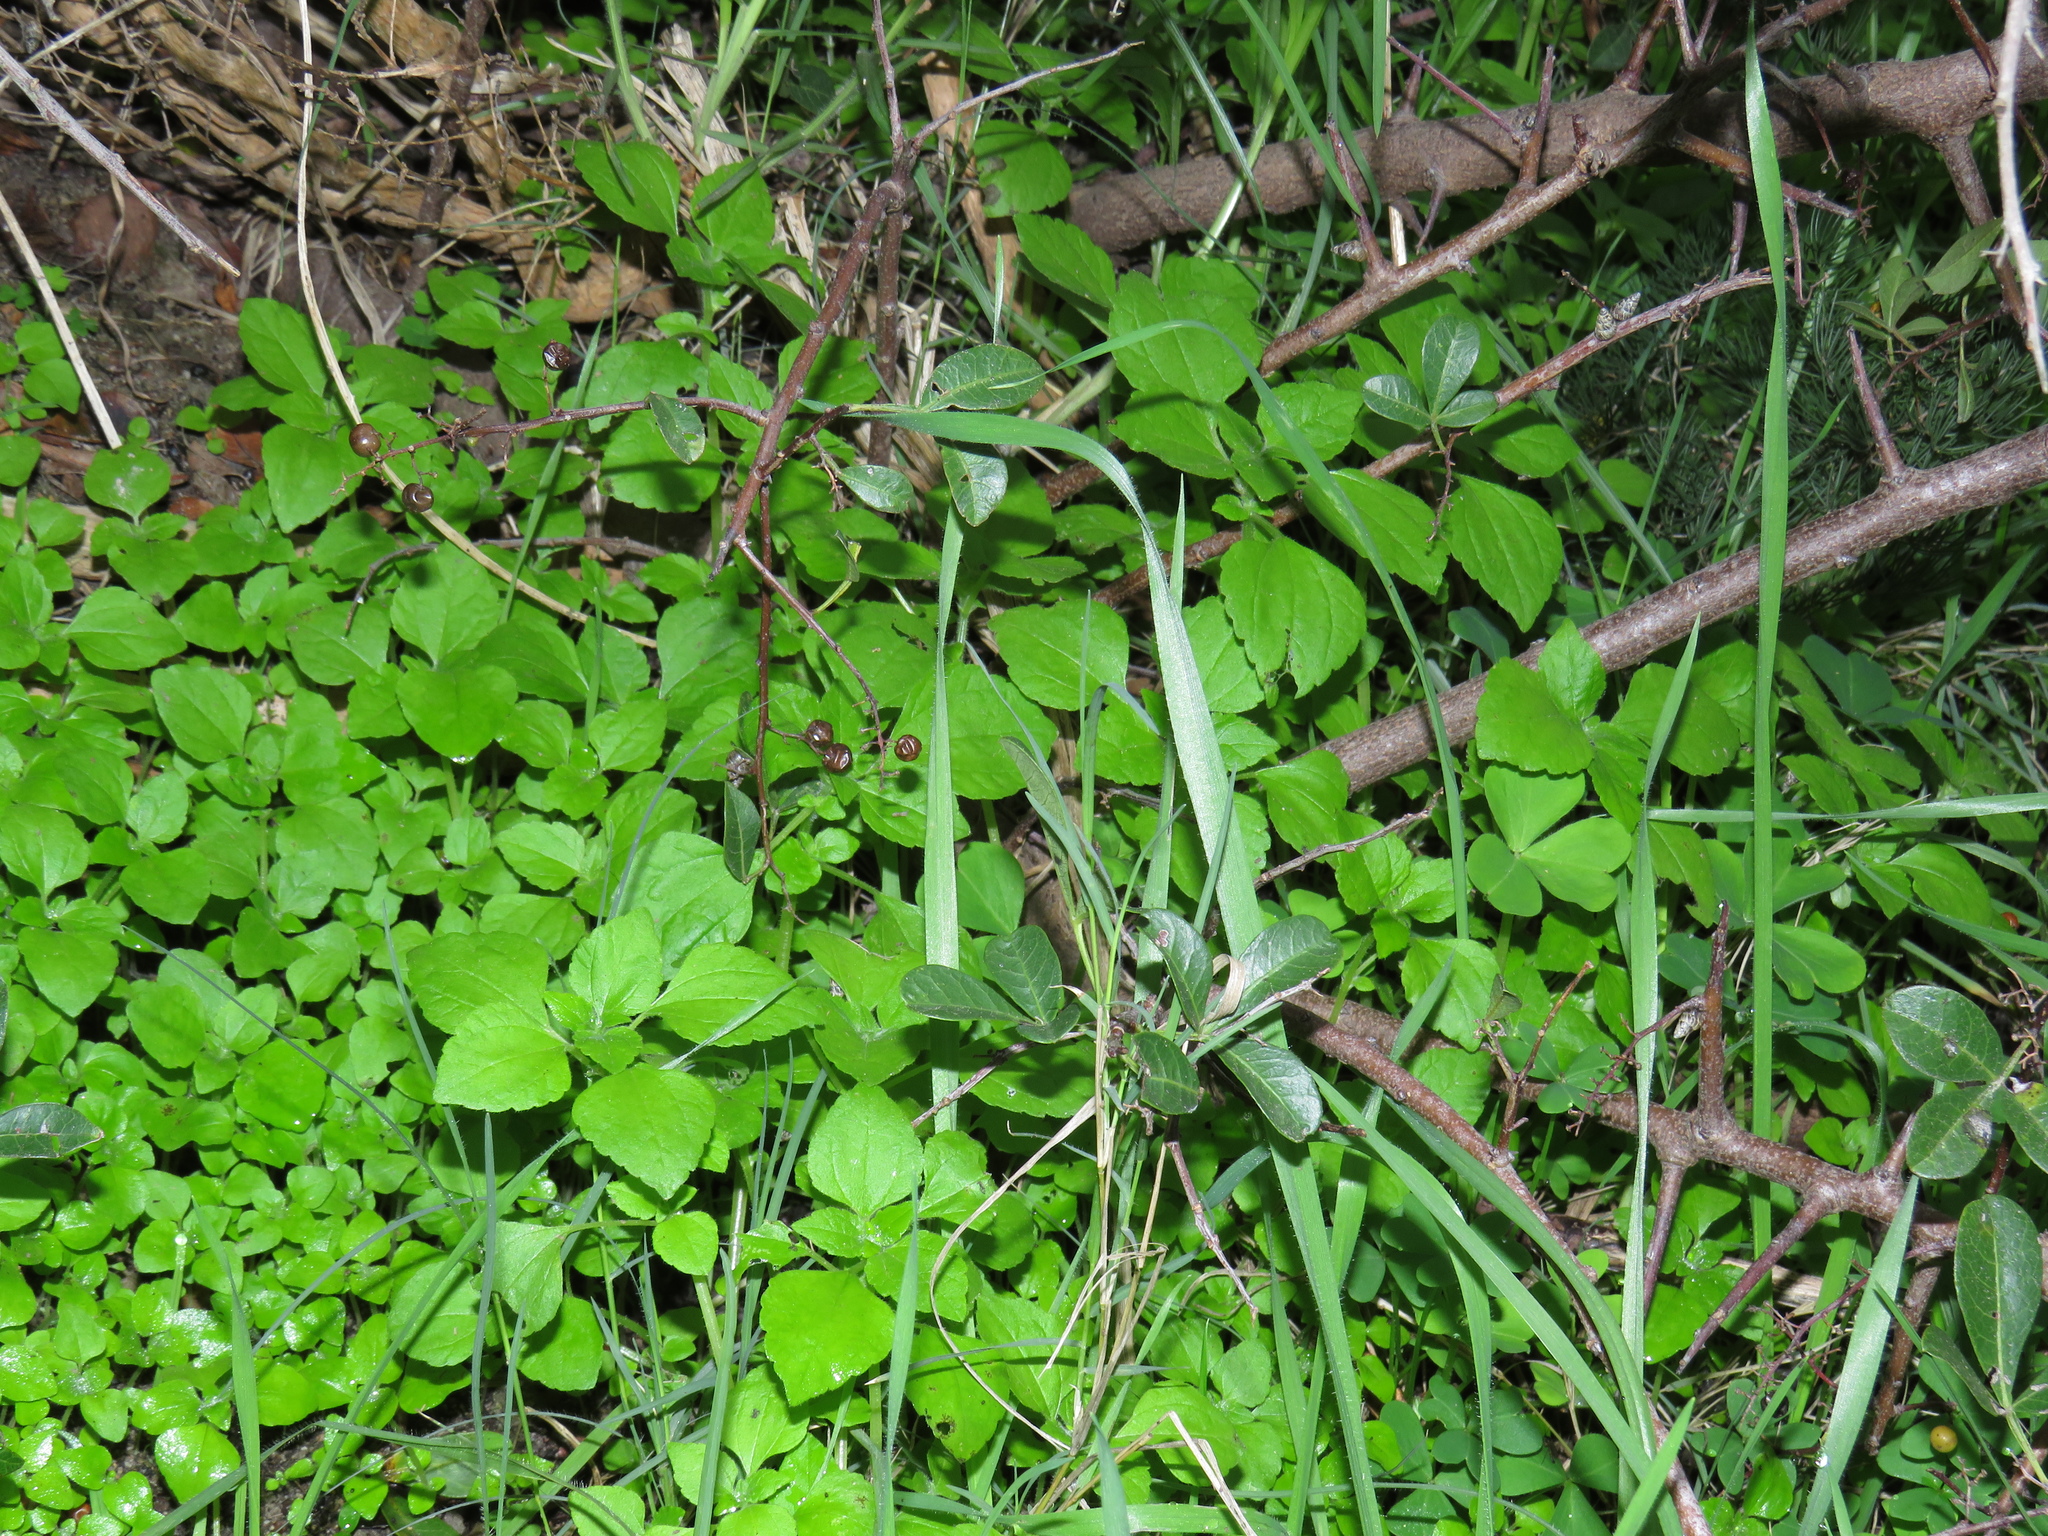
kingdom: Plantae
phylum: Tracheophyta
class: Magnoliopsida
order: Rosales
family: Urticaceae
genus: Didymodoxa
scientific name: Didymodoxa capensis
